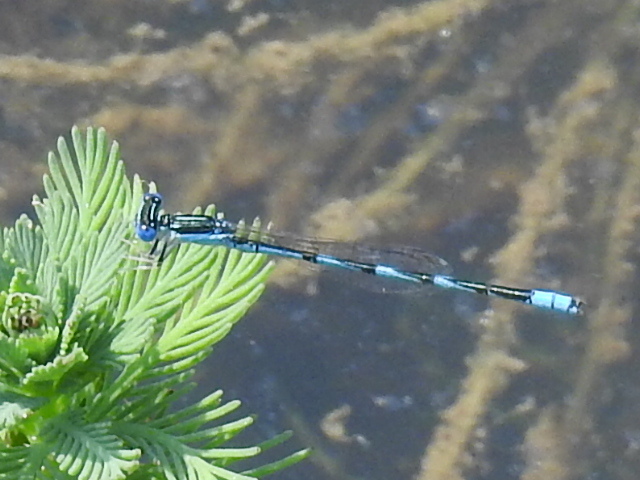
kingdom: Animalia
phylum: Arthropoda
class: Insecta
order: Odonata
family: Coenagrionidae
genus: Enallagma
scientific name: Enallagma basidens
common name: Double-striped bluet
